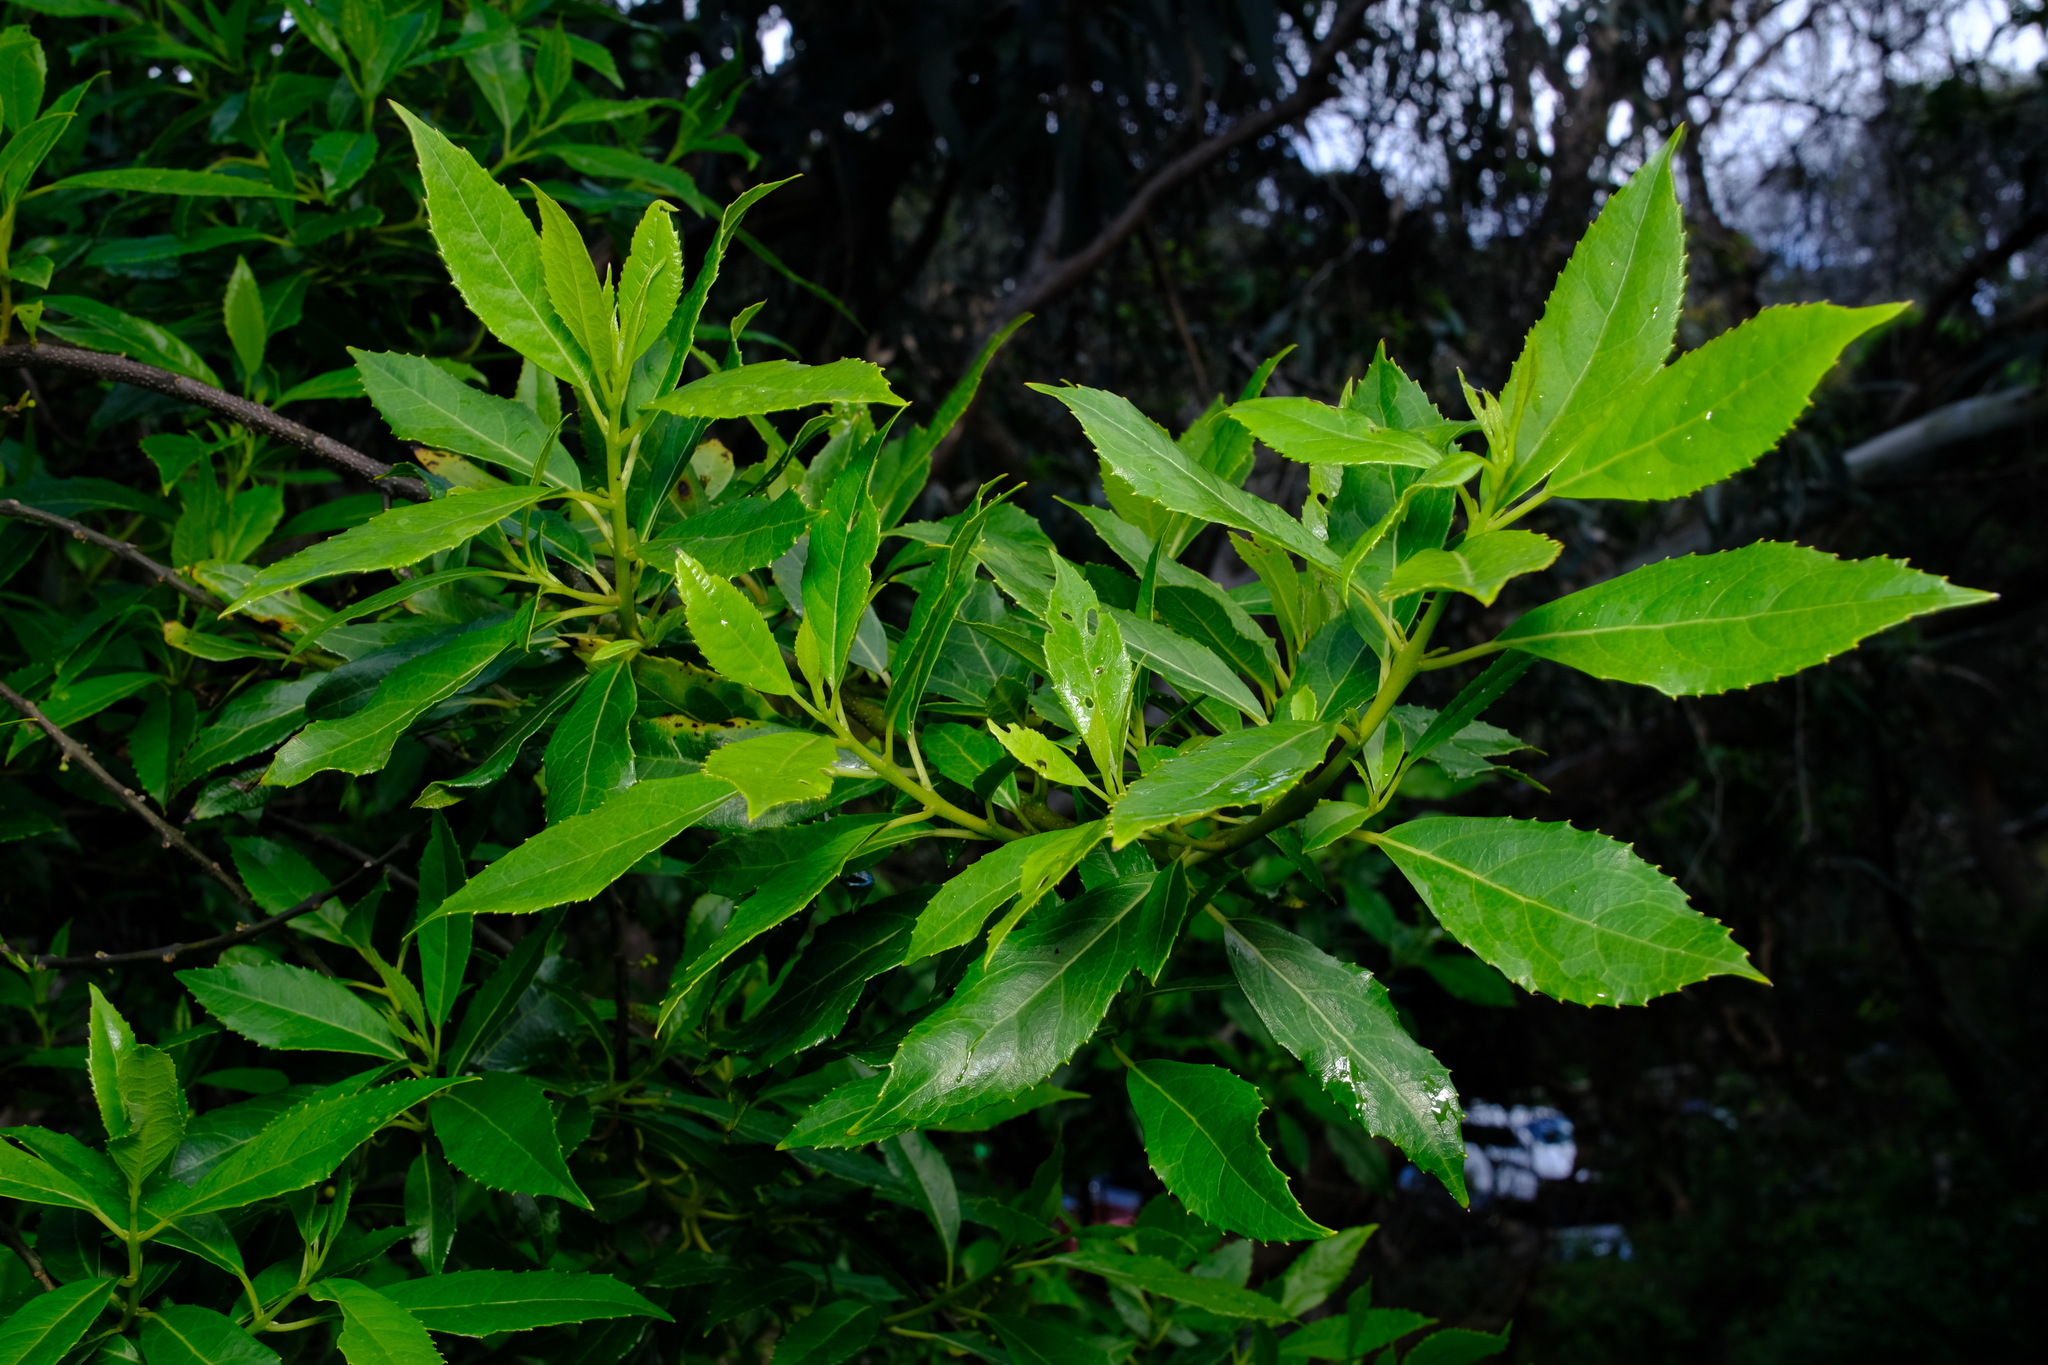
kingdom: Plantae
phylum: Tracheophyta
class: Magnoliopsida
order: Laurales
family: Monimiaceae
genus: Hedycarya
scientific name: Hedycarya angustifolia
